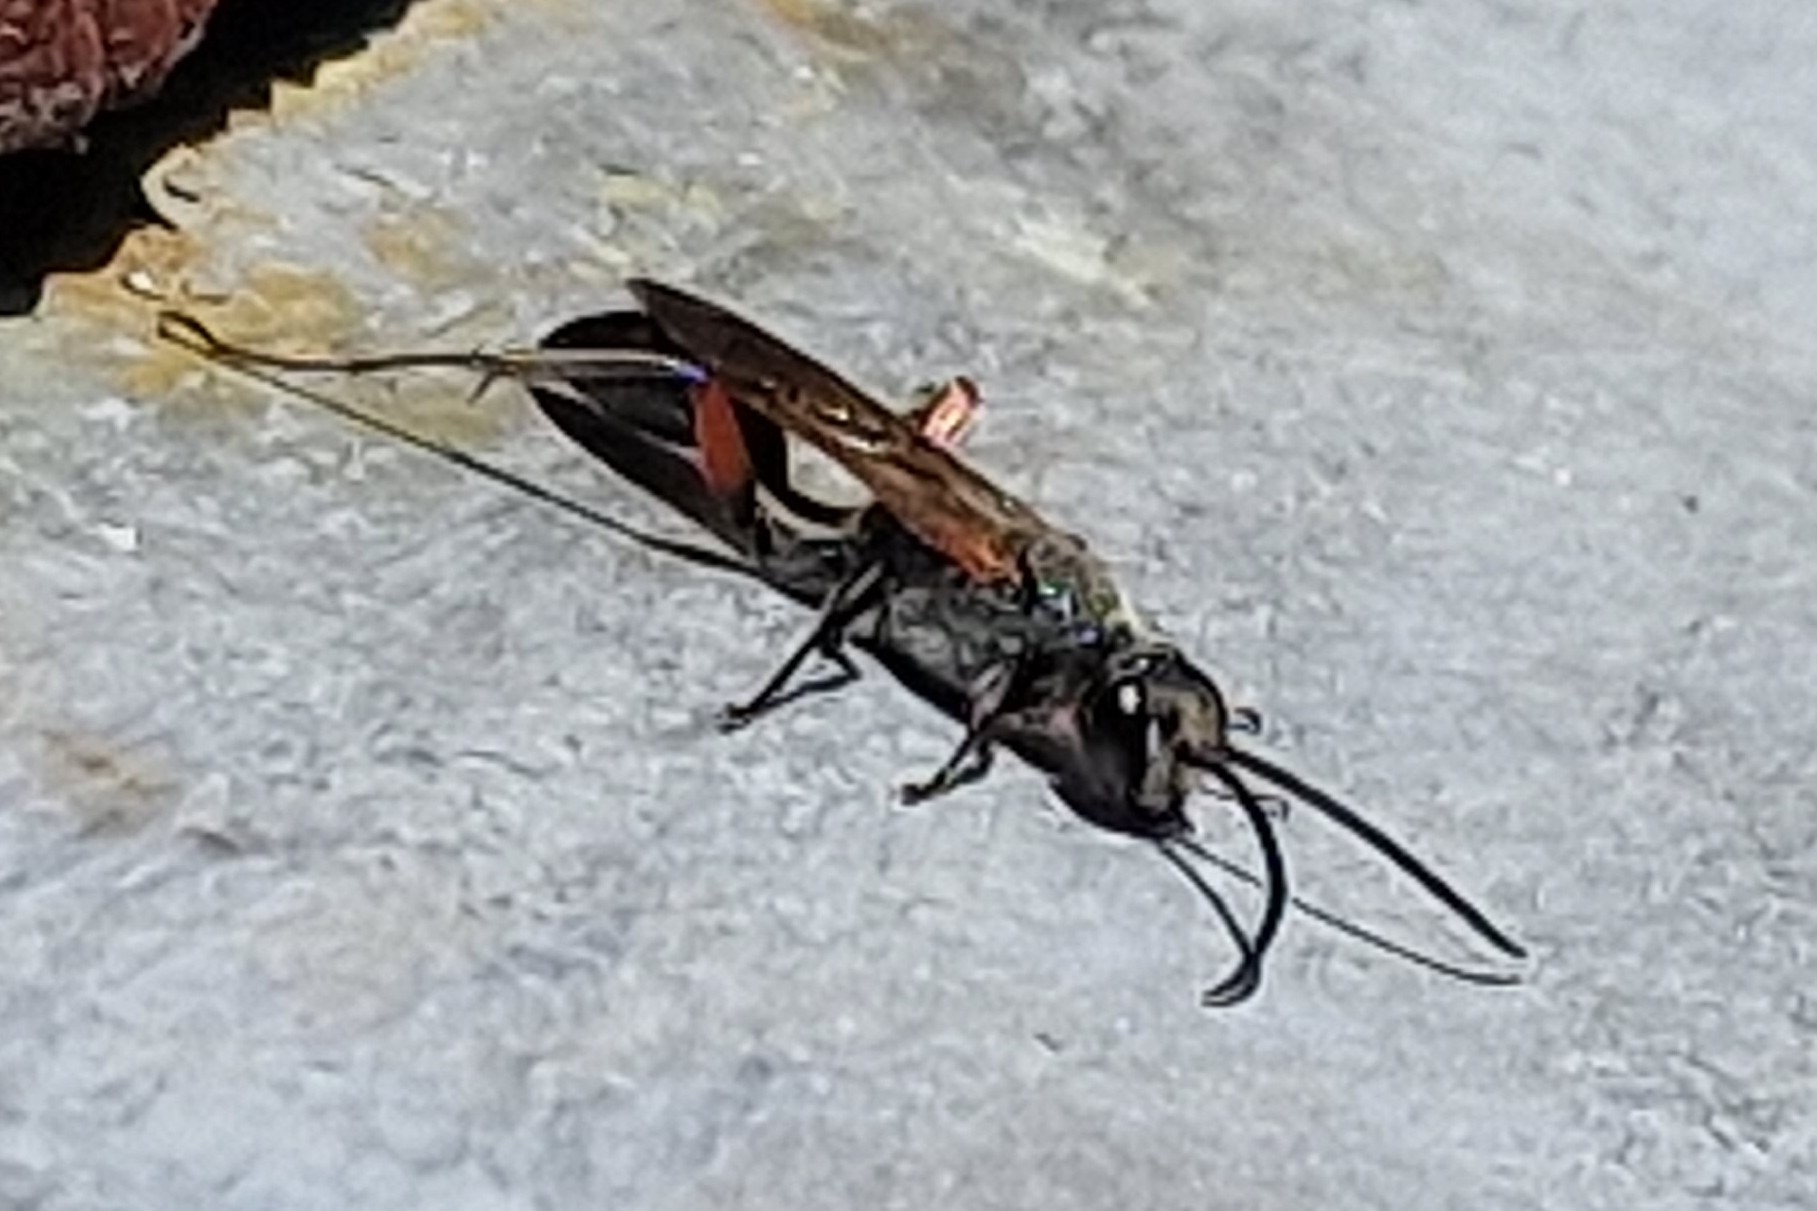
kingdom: Animalia
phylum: Arthropoda
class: Insecta
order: Hymenoptera
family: Sphecidae
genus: Chalybion
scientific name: Chalybion femoratum
